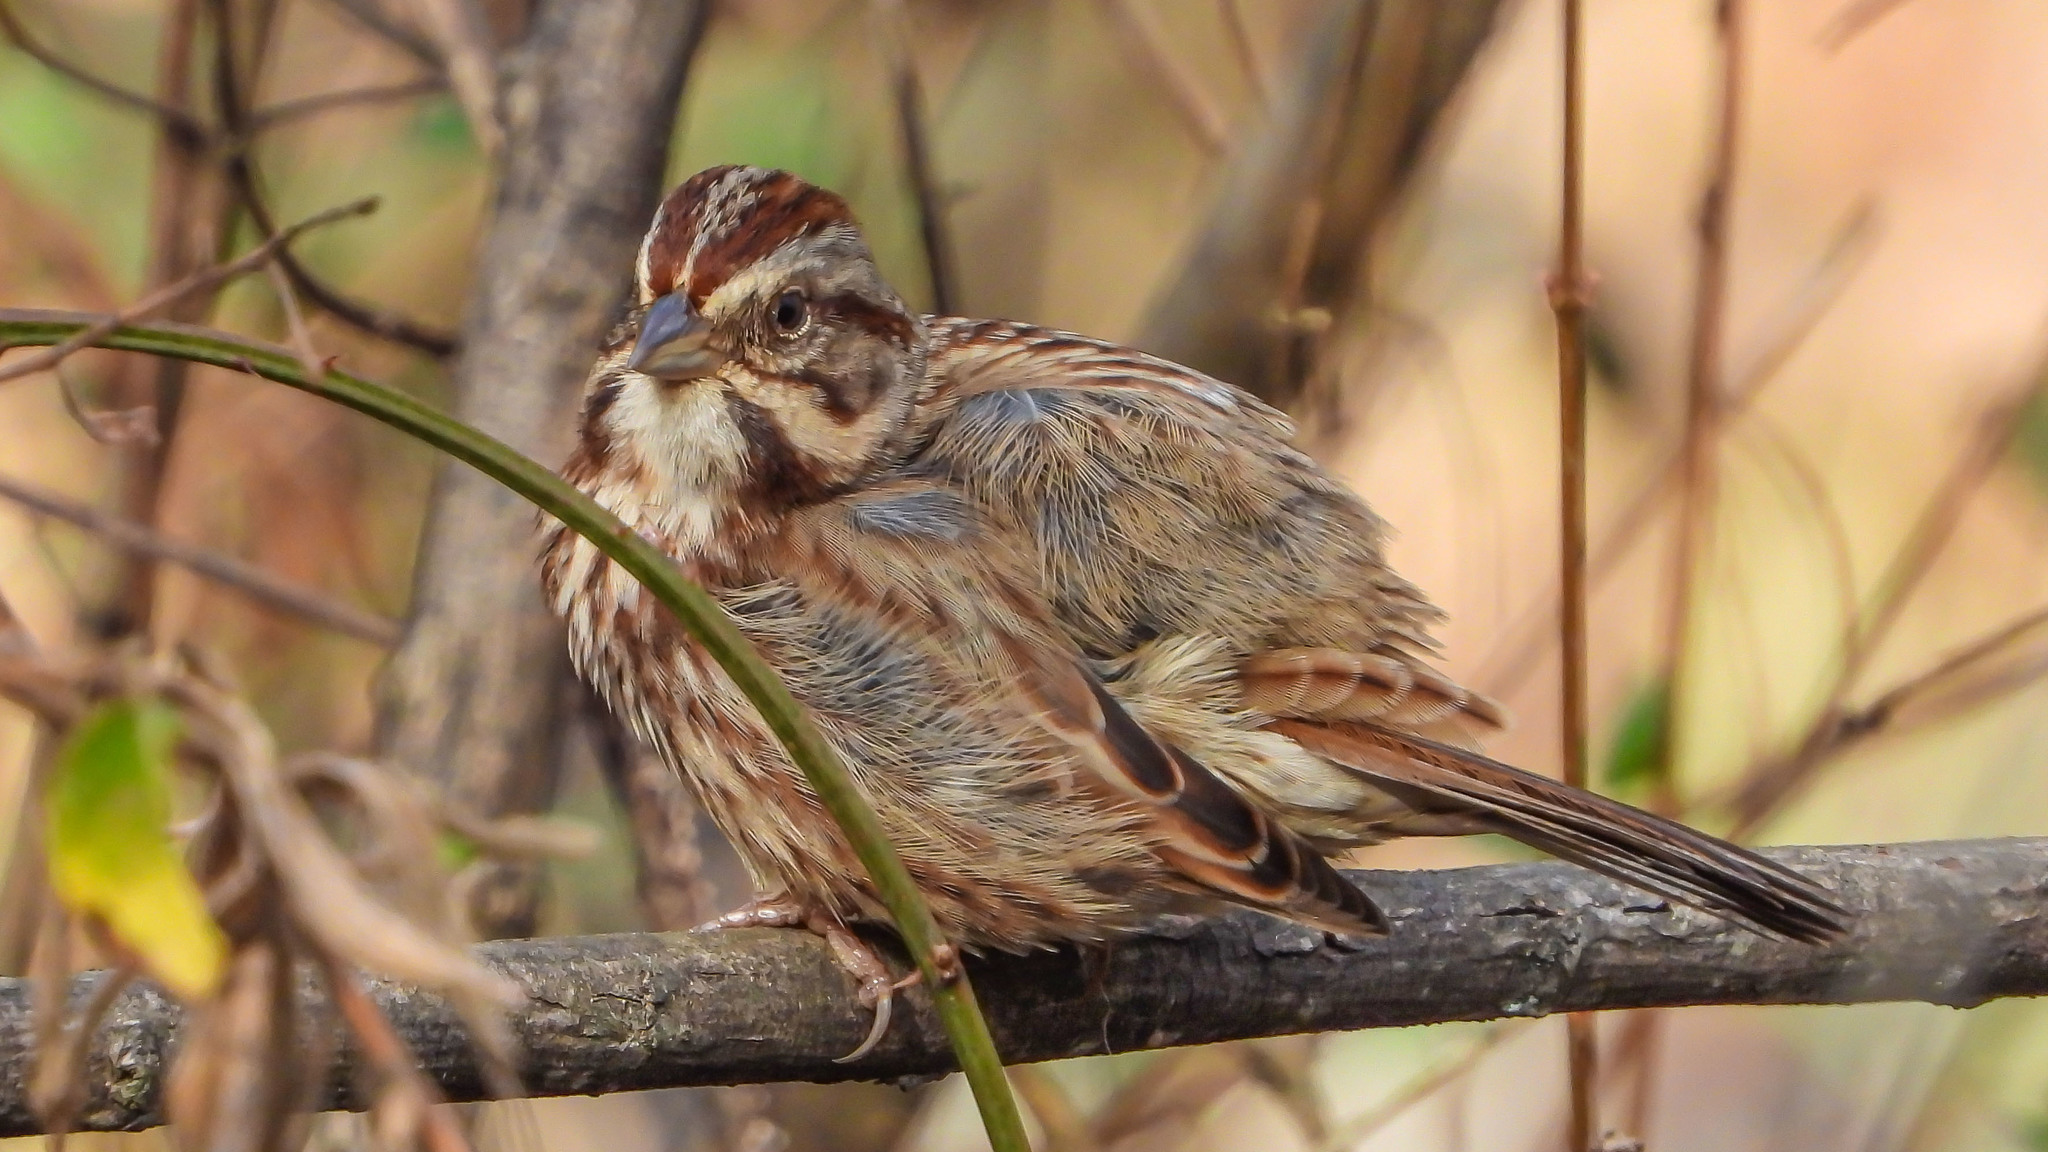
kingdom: Animalia
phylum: Chordata
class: Aves
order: Passeriformes
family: Passerellidae
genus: Melospiza
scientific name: Melospiza melodia
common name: Song sparrow
